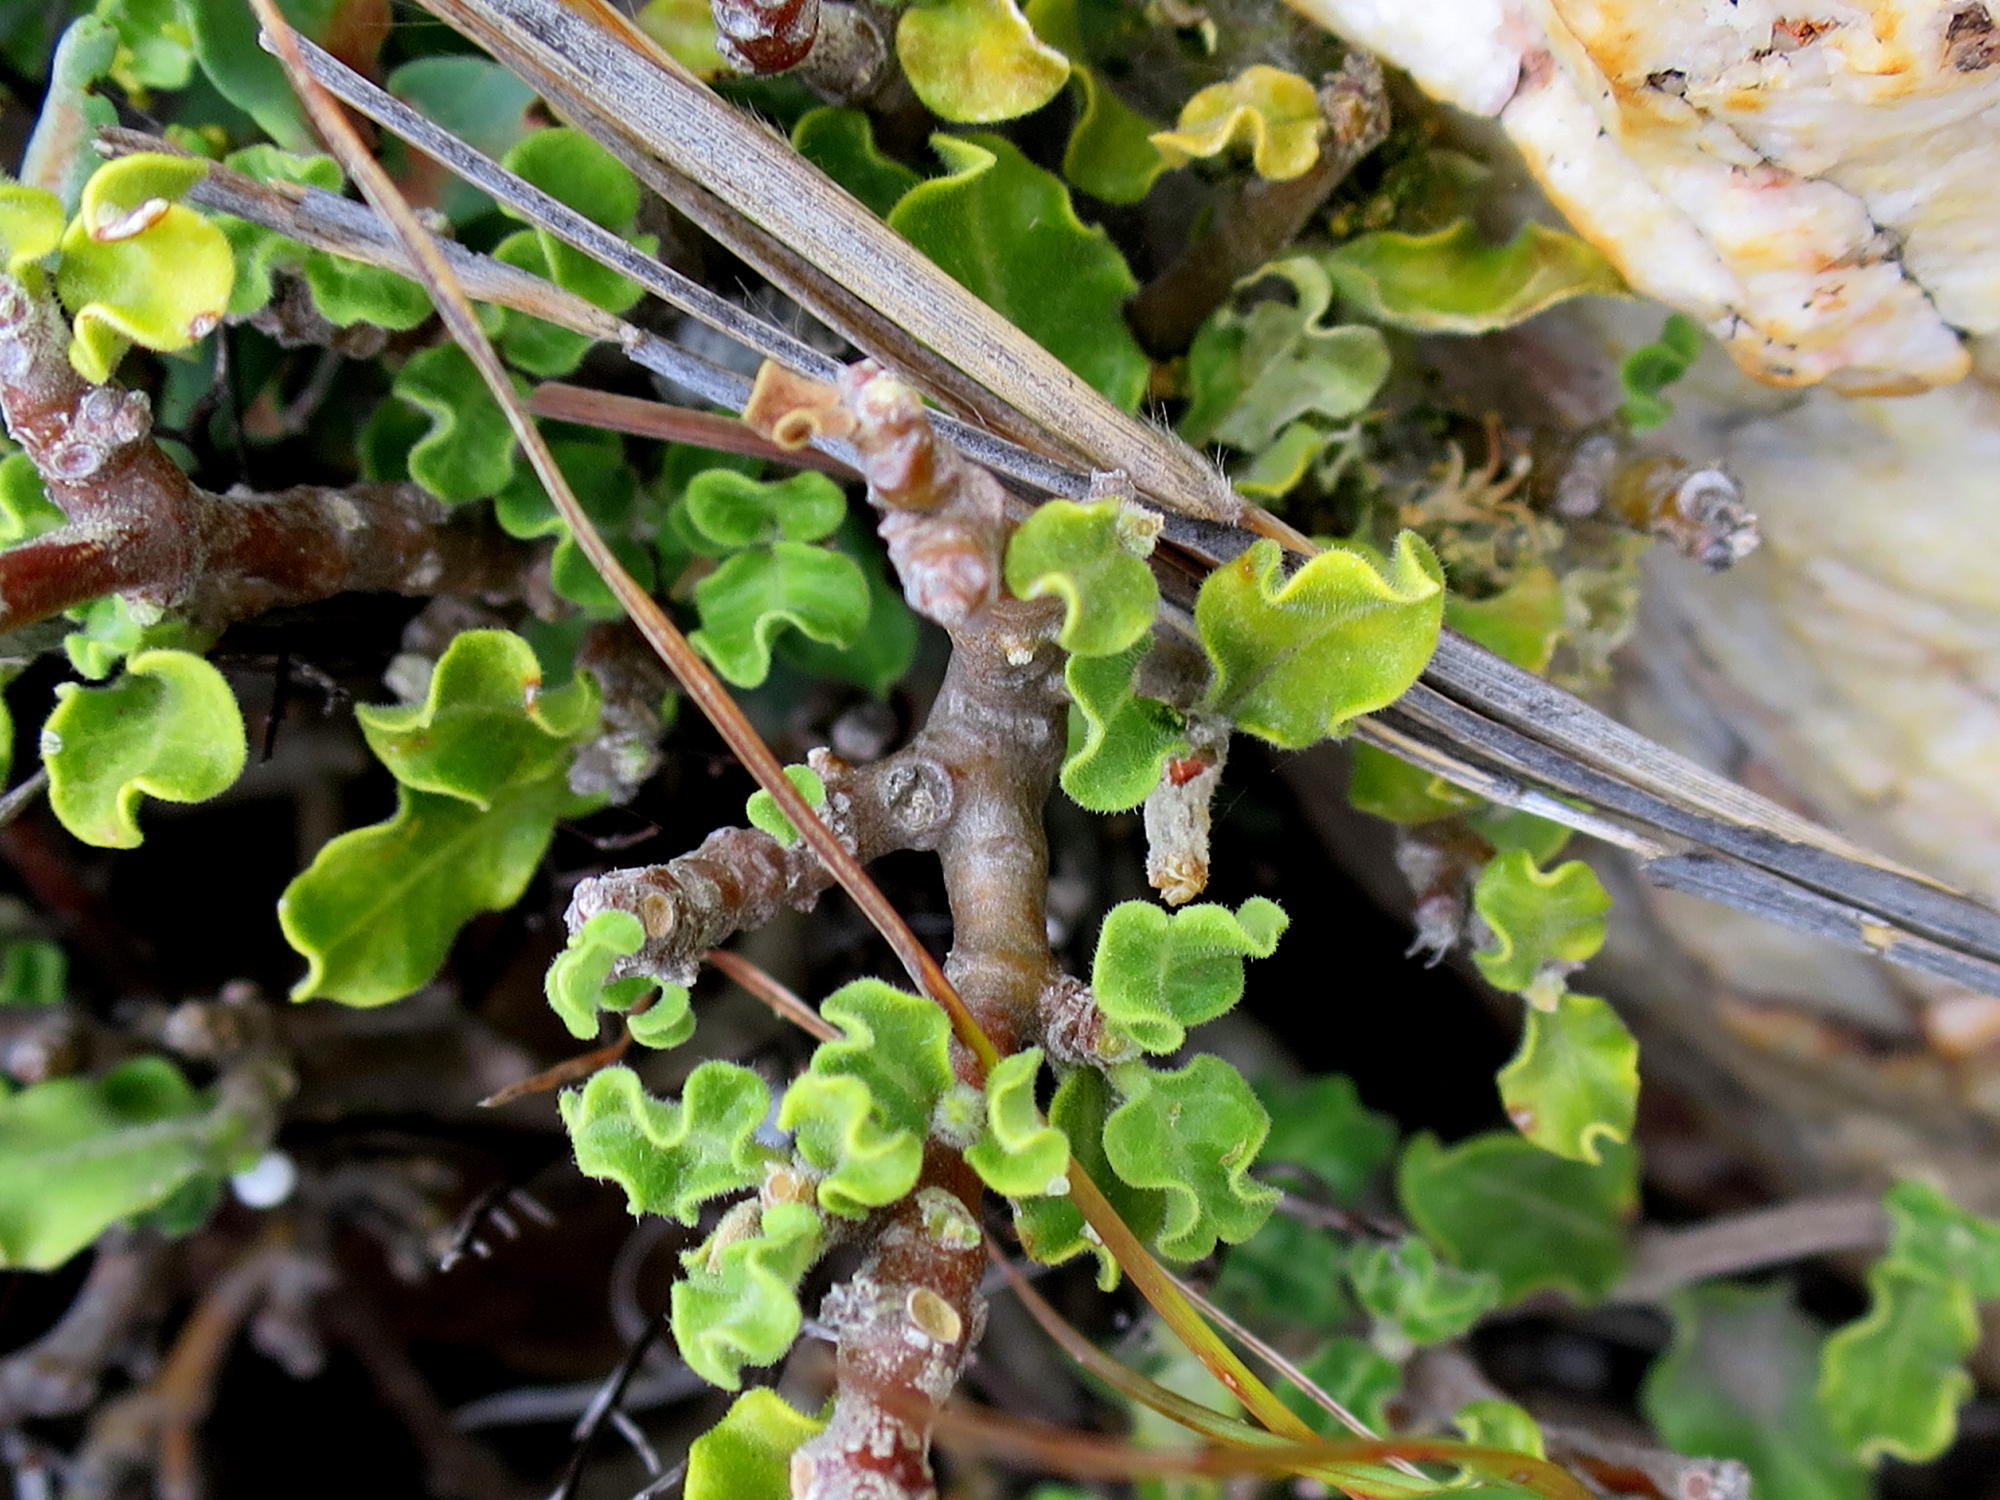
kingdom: Plantae
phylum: Tracheophyta
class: Magnoliopsida
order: Gentianales
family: Apocynaceae
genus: Fockea
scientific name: Fockea capensis
